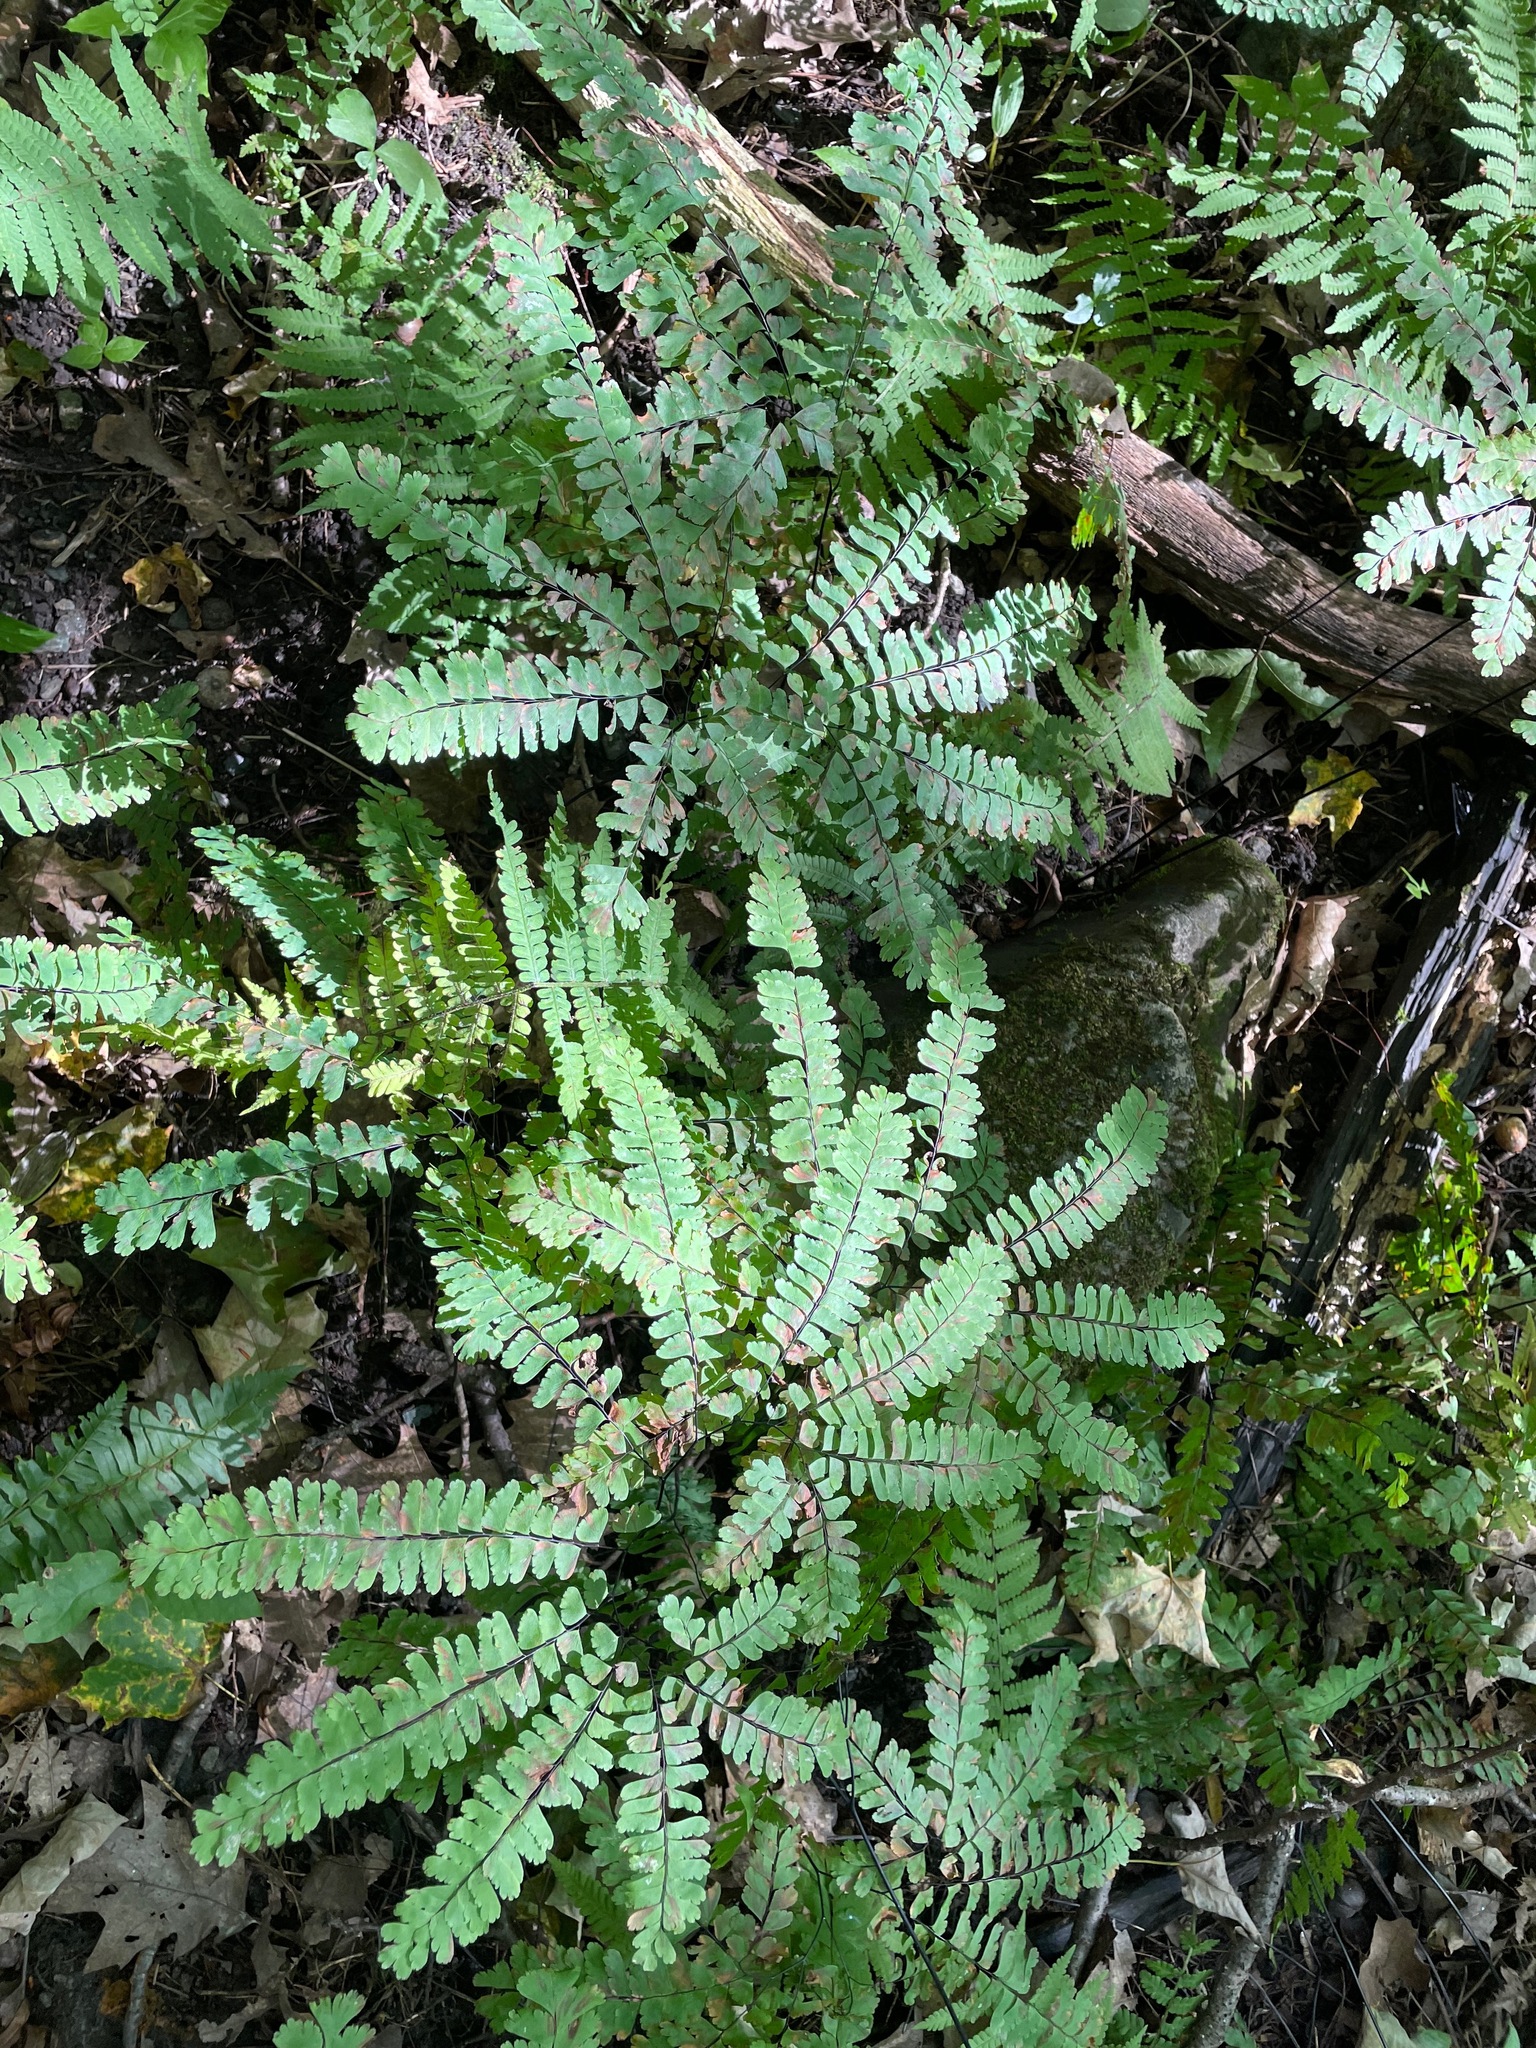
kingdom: Plantae
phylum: Tracheophyta
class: Polypodiopsida
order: Polypodiales
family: Pteridaceae
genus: Adiantum
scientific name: Adiantum pedatum
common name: Five-finger fern
